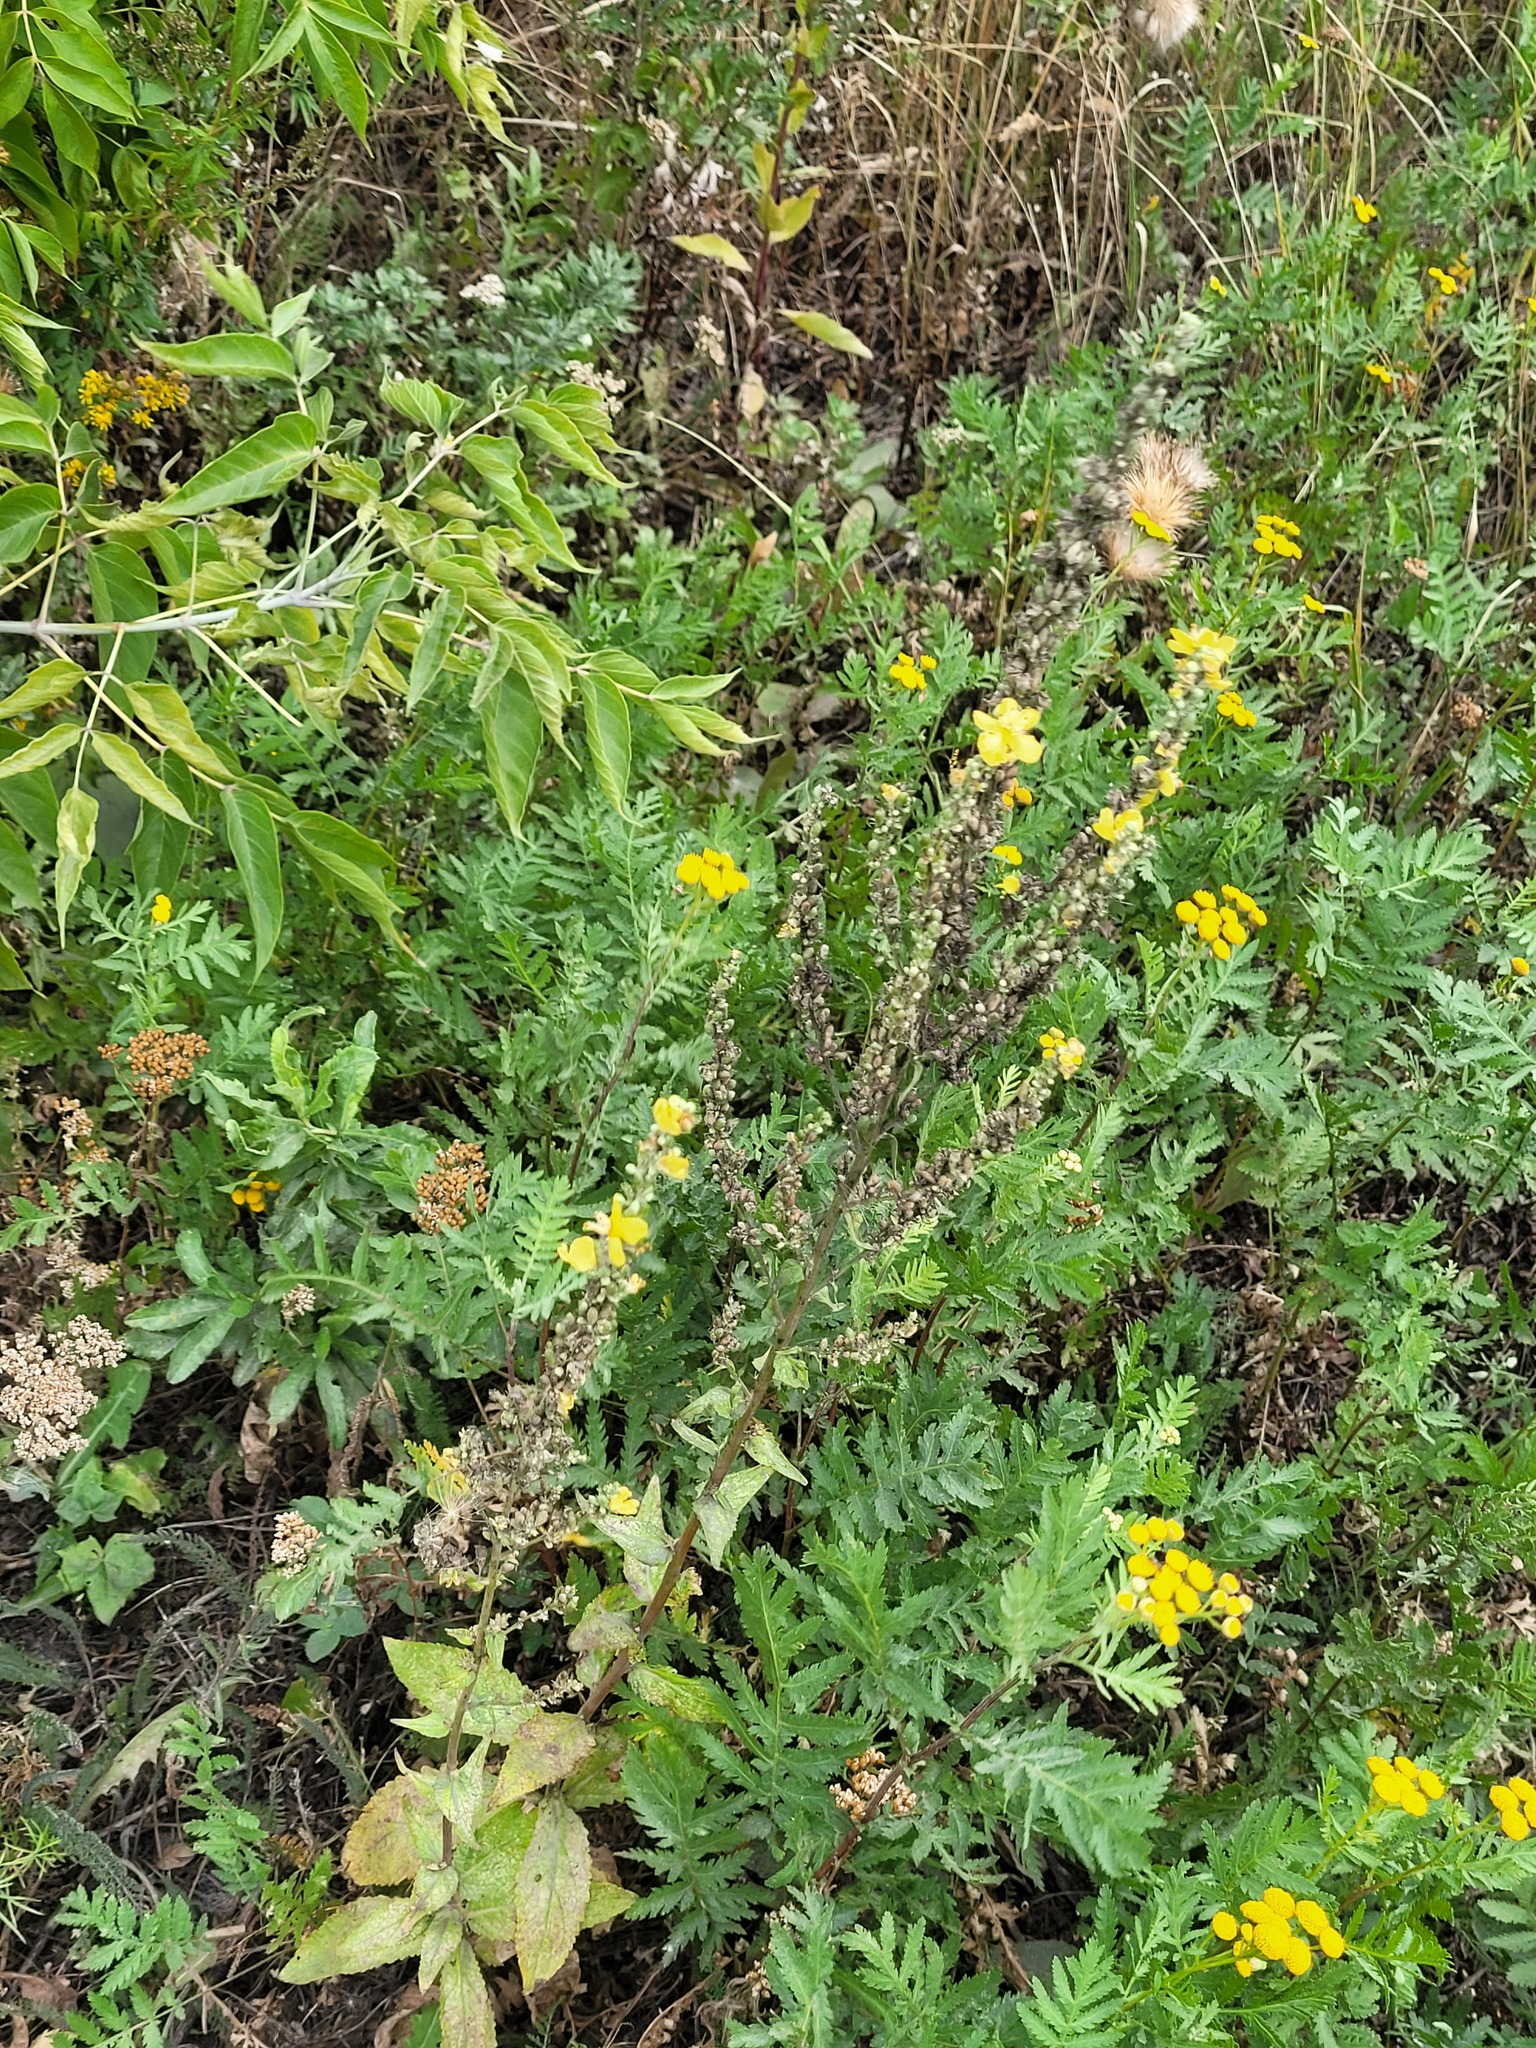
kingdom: Plantae
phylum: Tracheophyta
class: Magnoliopsida
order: Lamiales
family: Scrophulariaceae
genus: Verbascum
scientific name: Verbascum lychnitis
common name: White mullein
